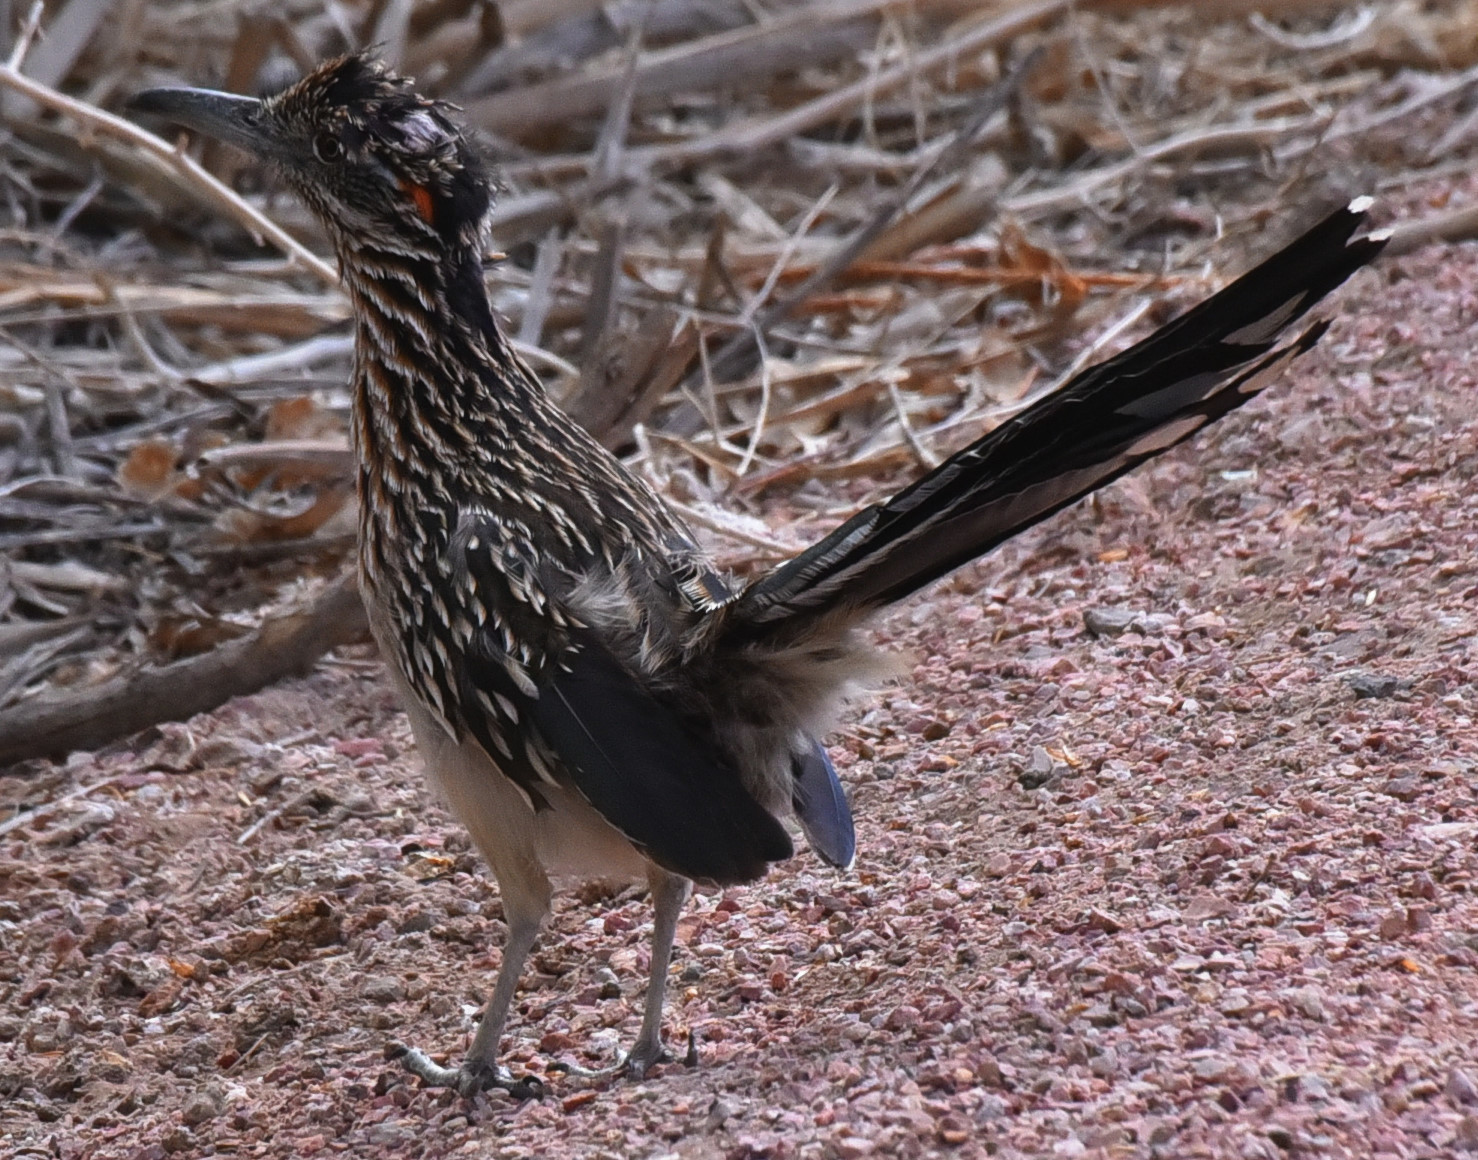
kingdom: Animalia
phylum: Chordata
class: Aves
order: Cuculiformes
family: Cuculidae
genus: Geococcyx
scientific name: Geococcyx californianus
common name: Greater roadrunner
